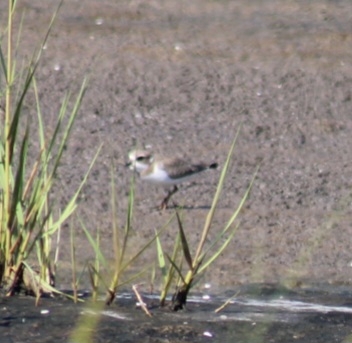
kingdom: Animalia
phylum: Chordata
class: Aves
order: Charadriiformes
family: Charadriidae
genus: Charadrius
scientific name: Charadrius semipalmatus
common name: Semipalmated plover
